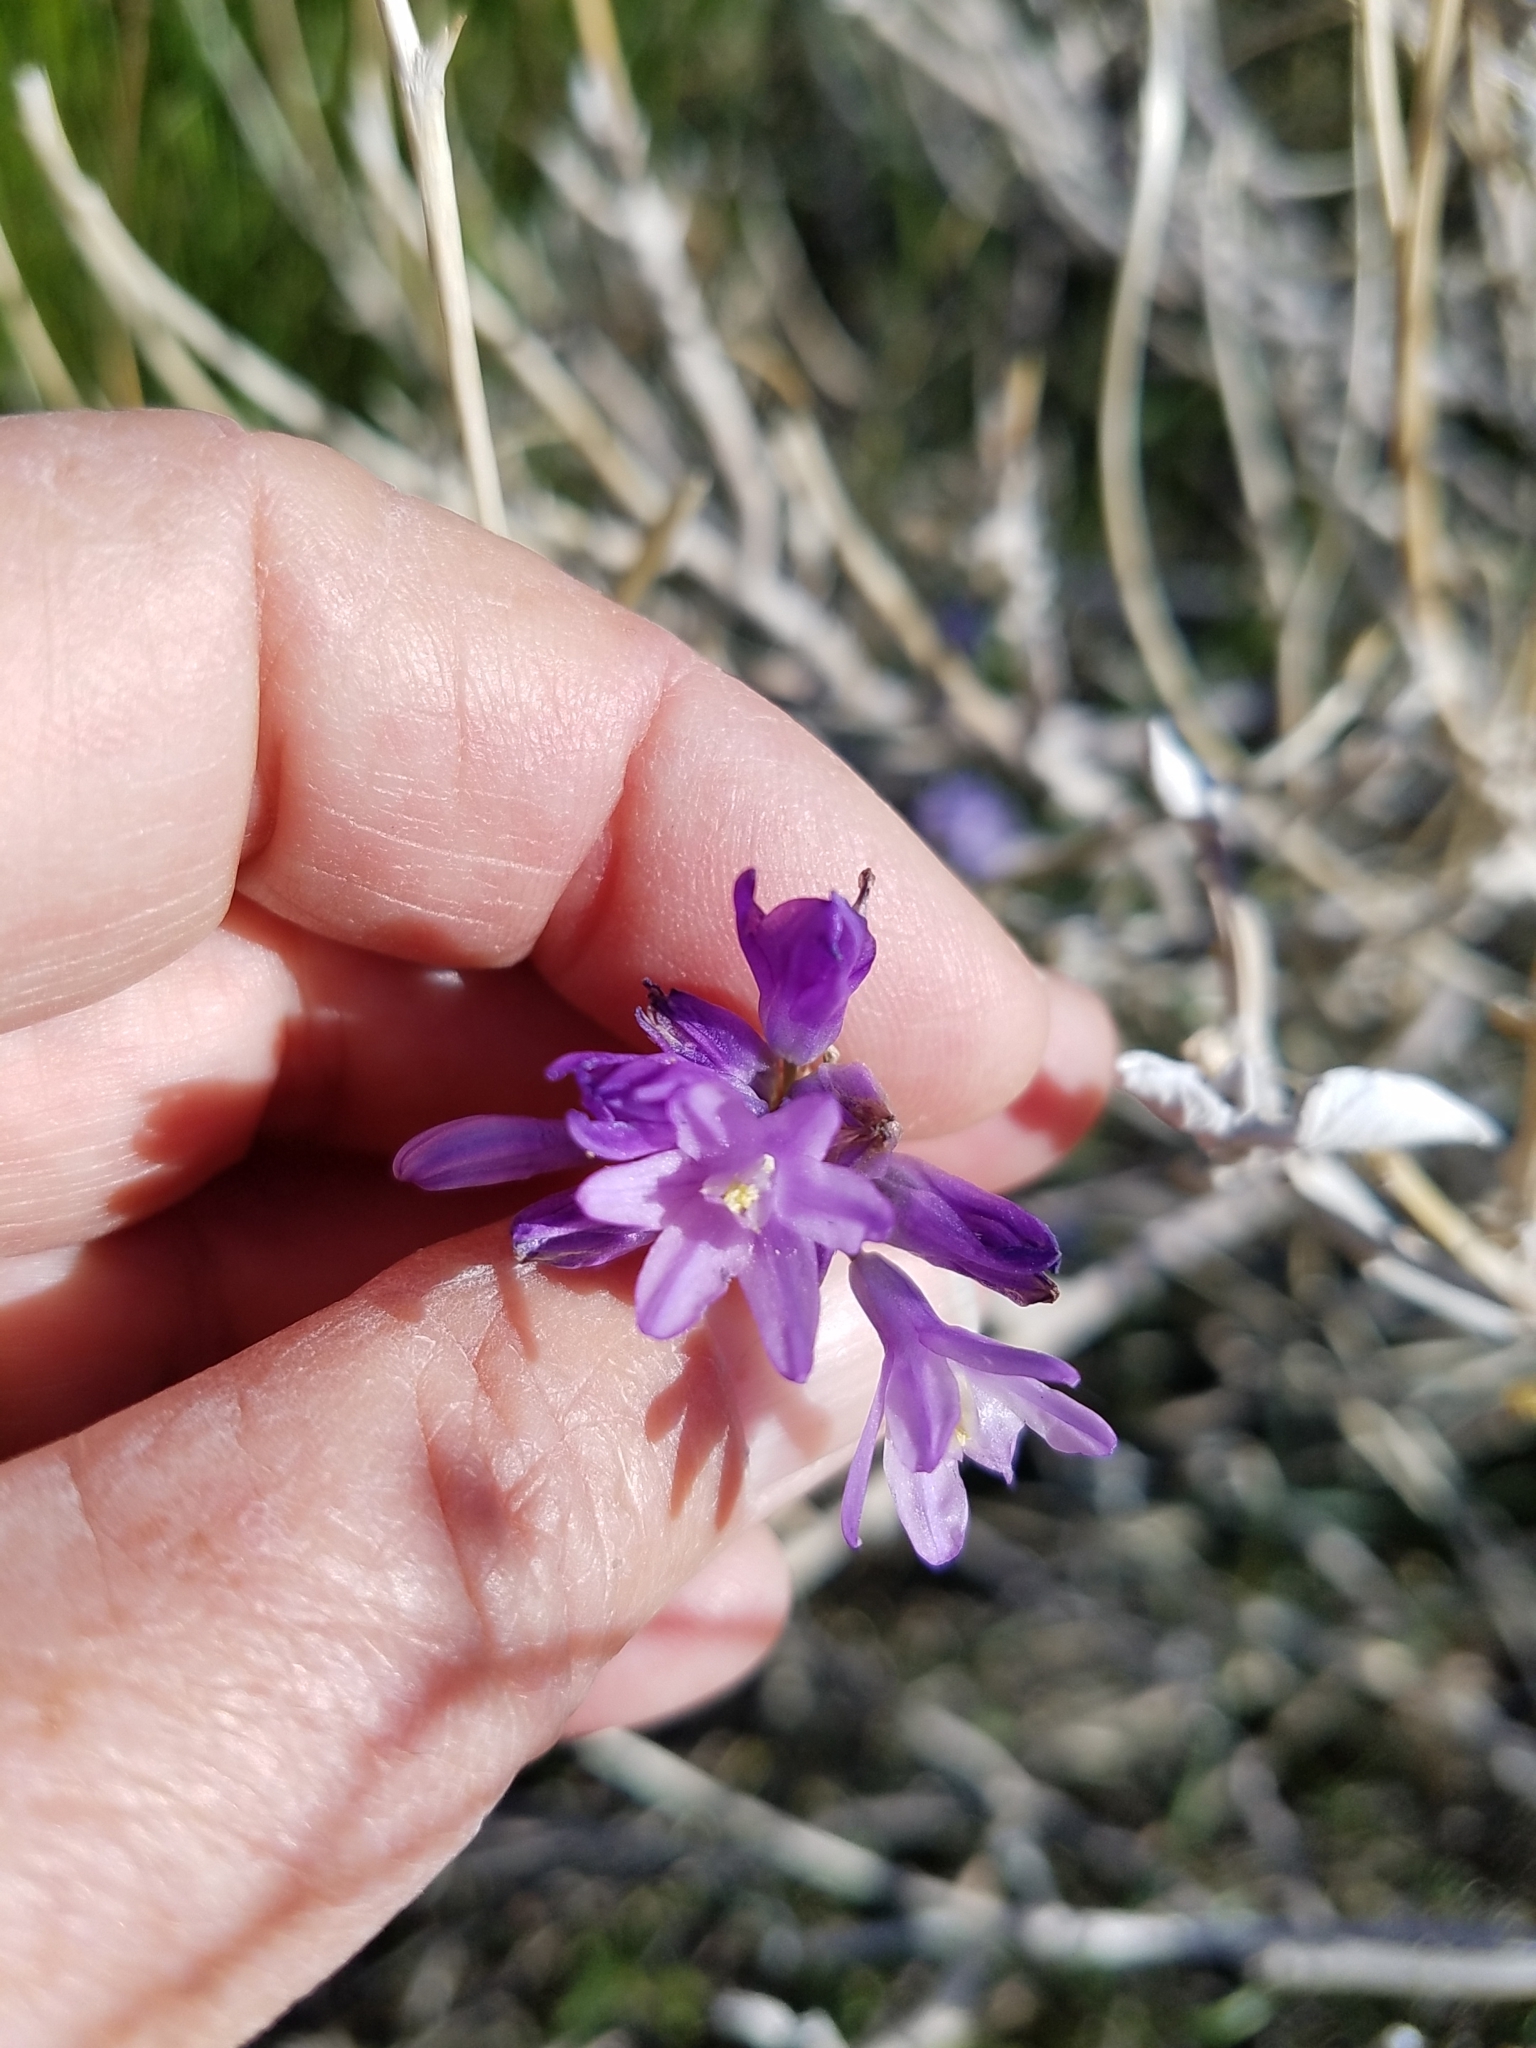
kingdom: Plantae
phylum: Tracheophyta
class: Liliopsida
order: Asparagales
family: Asparagaceae
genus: Dipterostemon
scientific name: Dipterostemon capitatus
